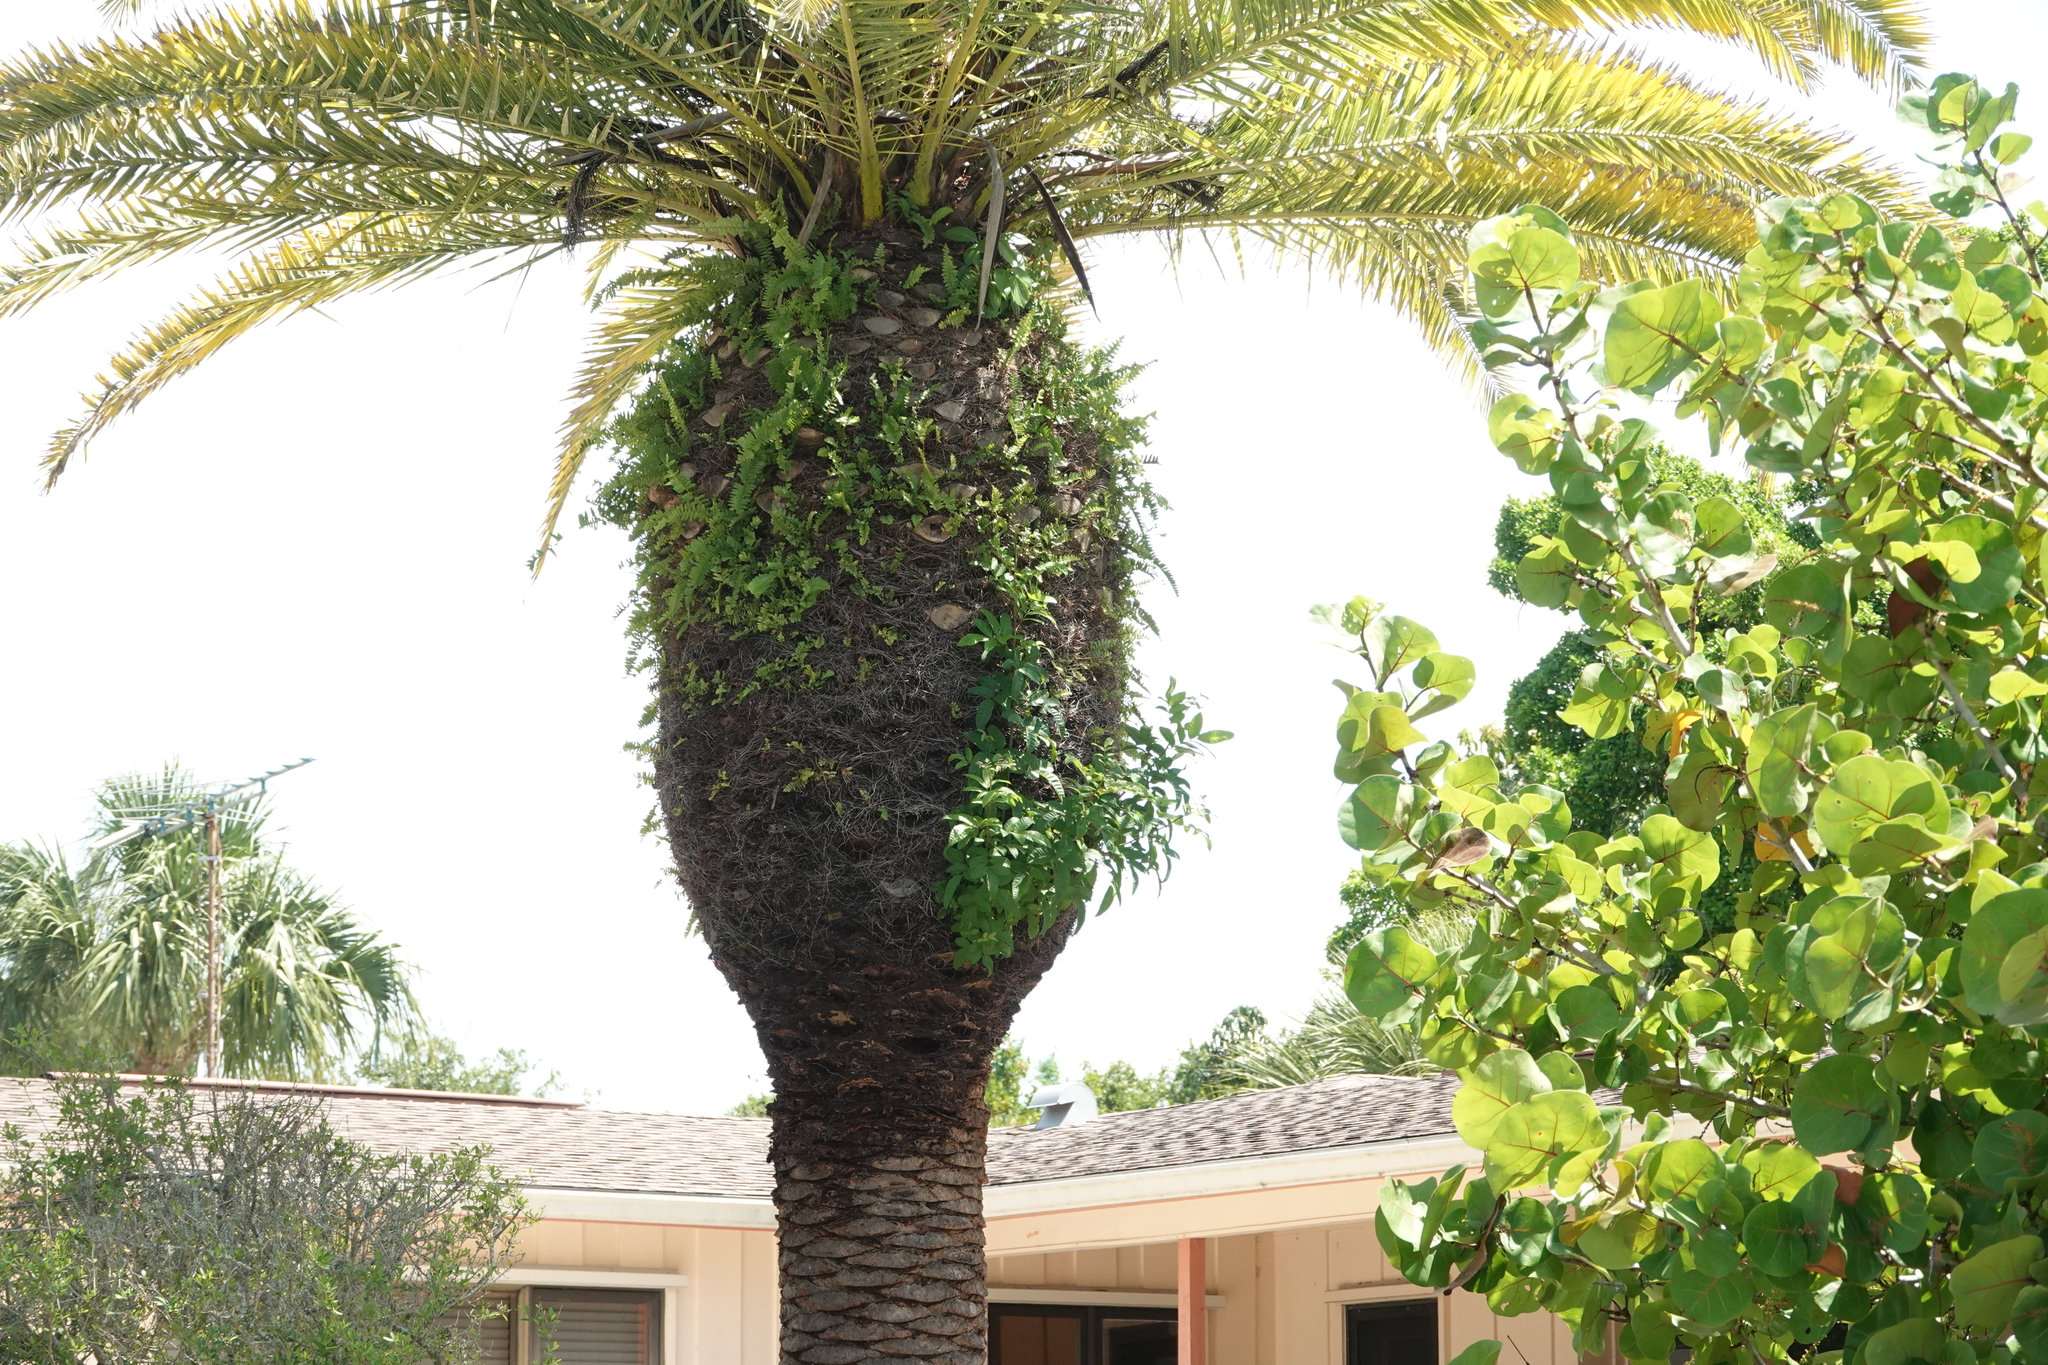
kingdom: Plantae
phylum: Tracheophyta
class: Magnoliopsida
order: Sapindales
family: Anacardiaceae
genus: Schinus
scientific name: Schinus terebinthifolia
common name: Brazilian peppertree
